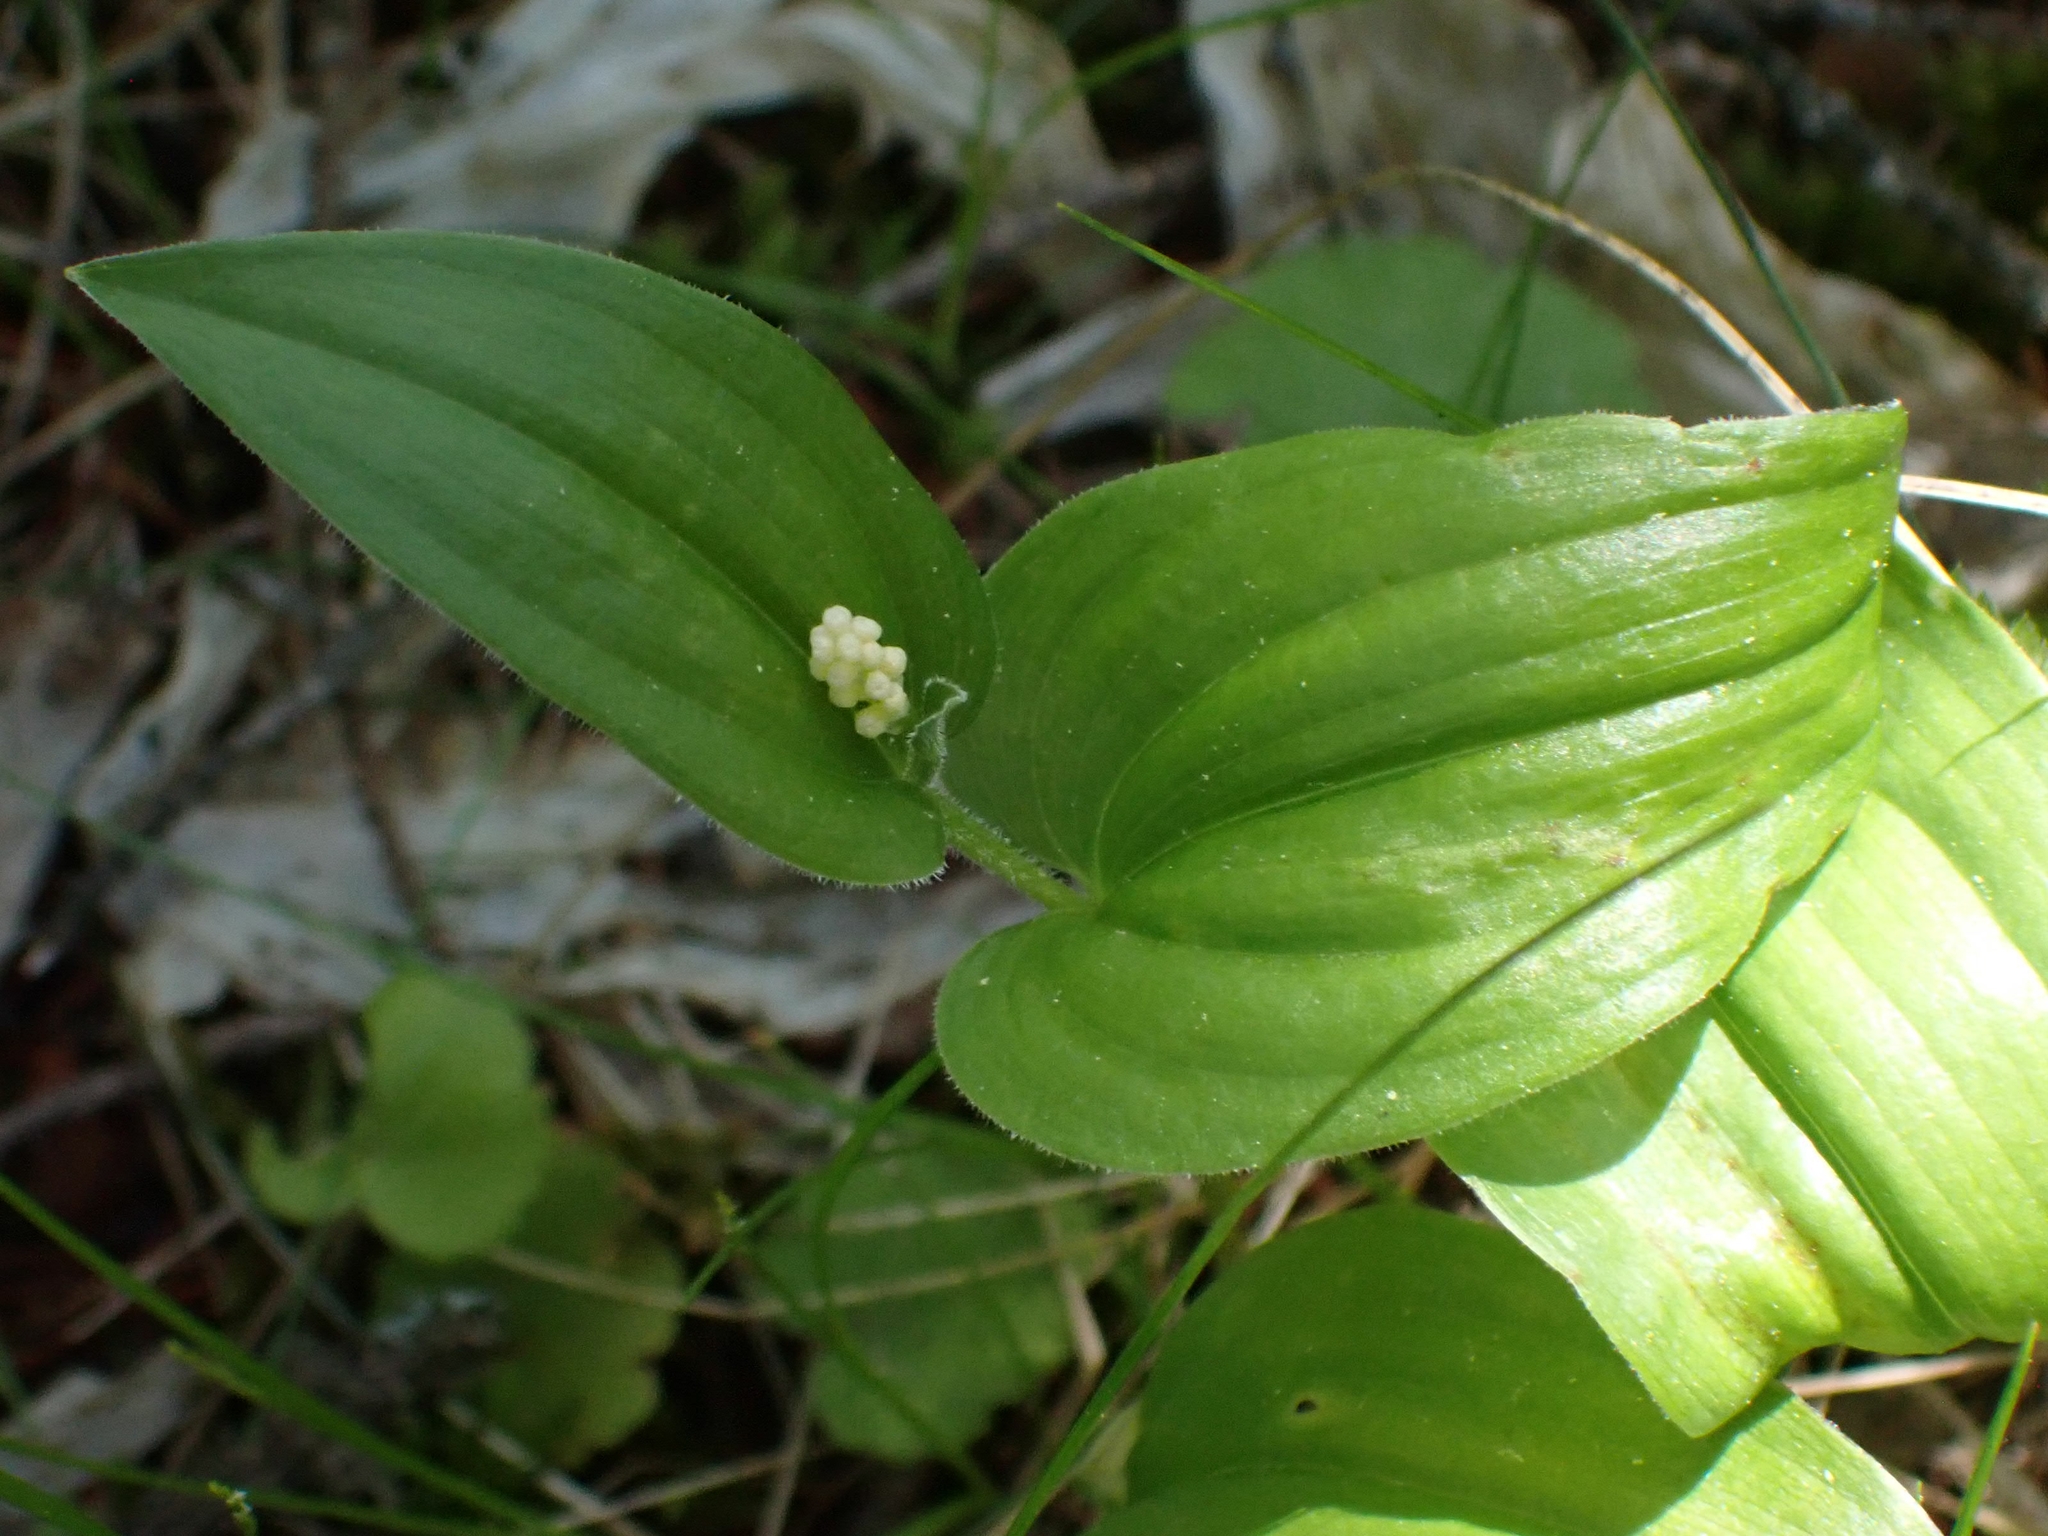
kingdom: Plantae
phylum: Tracheophyta
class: Liliopsida
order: Asparagales
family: Asparagaceae
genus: Maianthemum
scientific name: Maianthemum canadense
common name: False lily-of-the-valley
